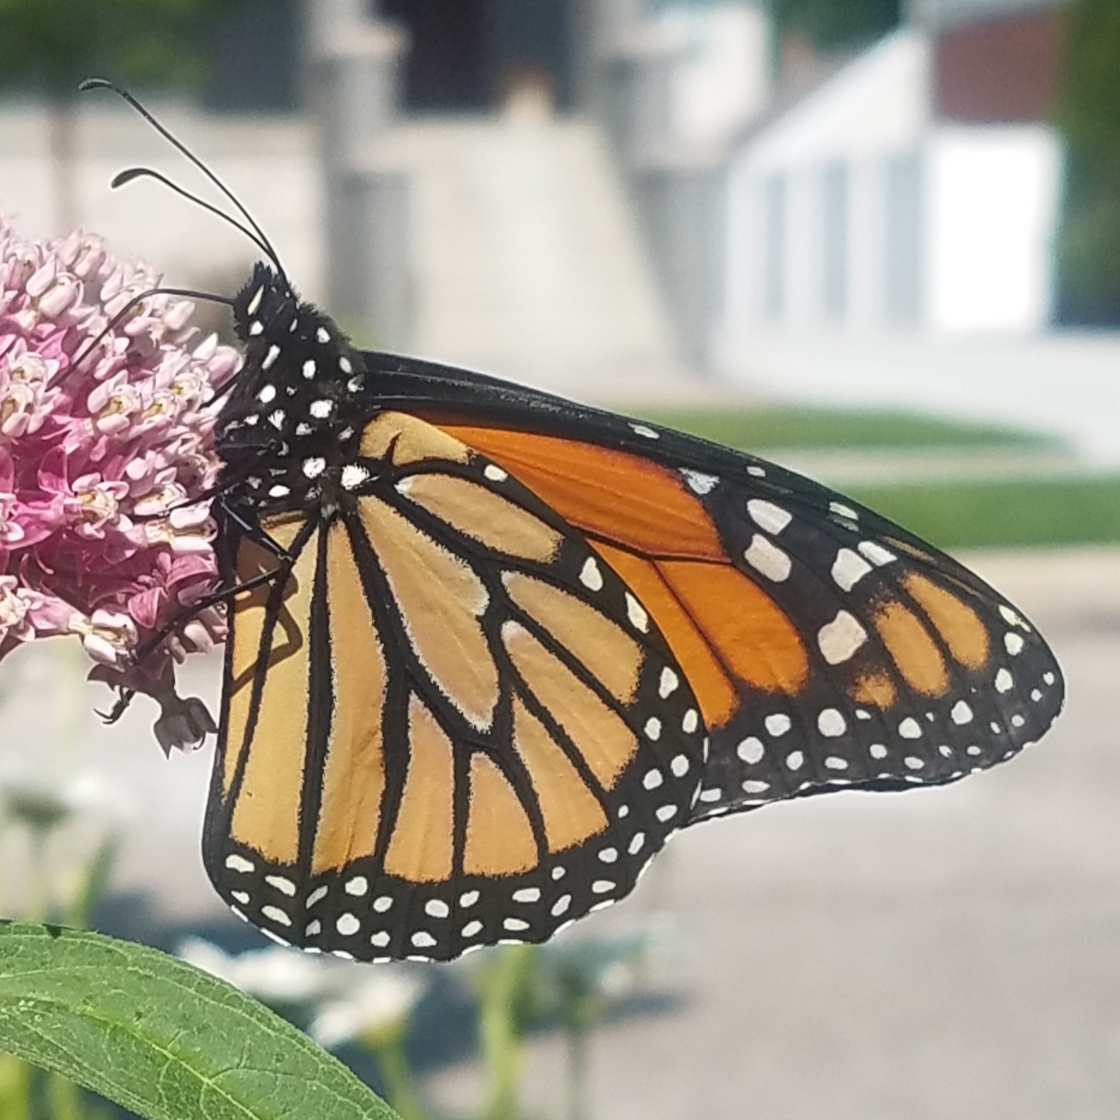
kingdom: Animalia
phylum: Arthropoda
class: Insecta
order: Lepidoptera
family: Nymphalidae
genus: Danaus
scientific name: Danaus plexippus
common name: Monarch
